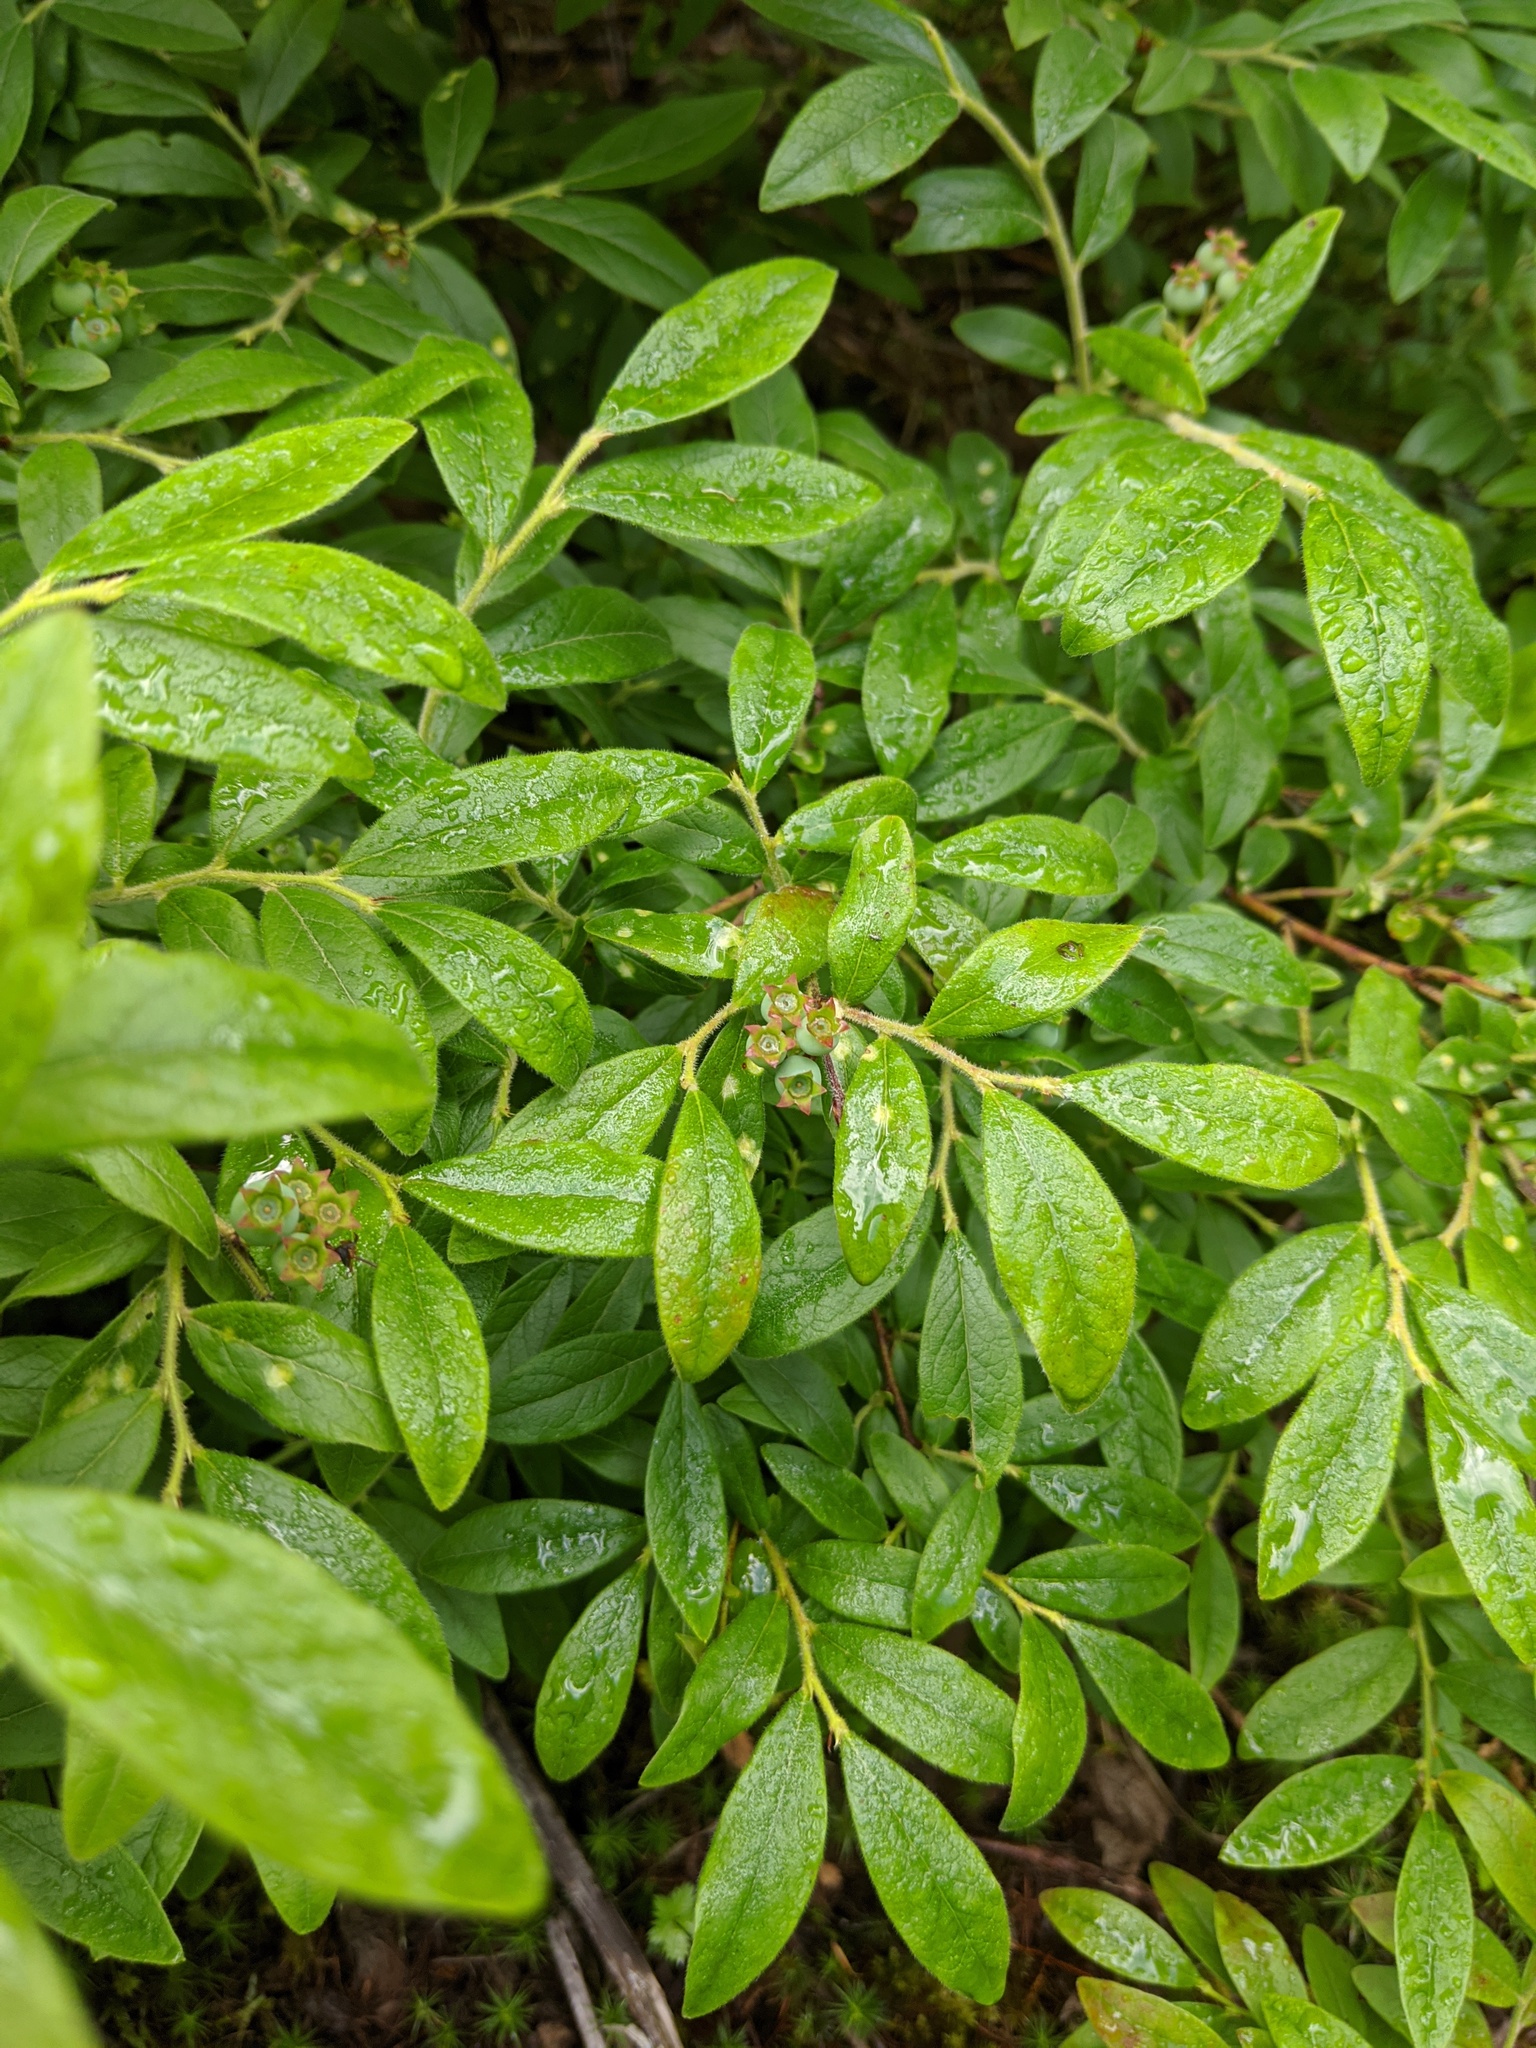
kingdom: Plantae
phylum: Tracheophyta
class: Magnoliopsida
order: Ericales
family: Ericaceae
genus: Vaccinium
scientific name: Vaccinium myrtilloides
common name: Canada blueberry
